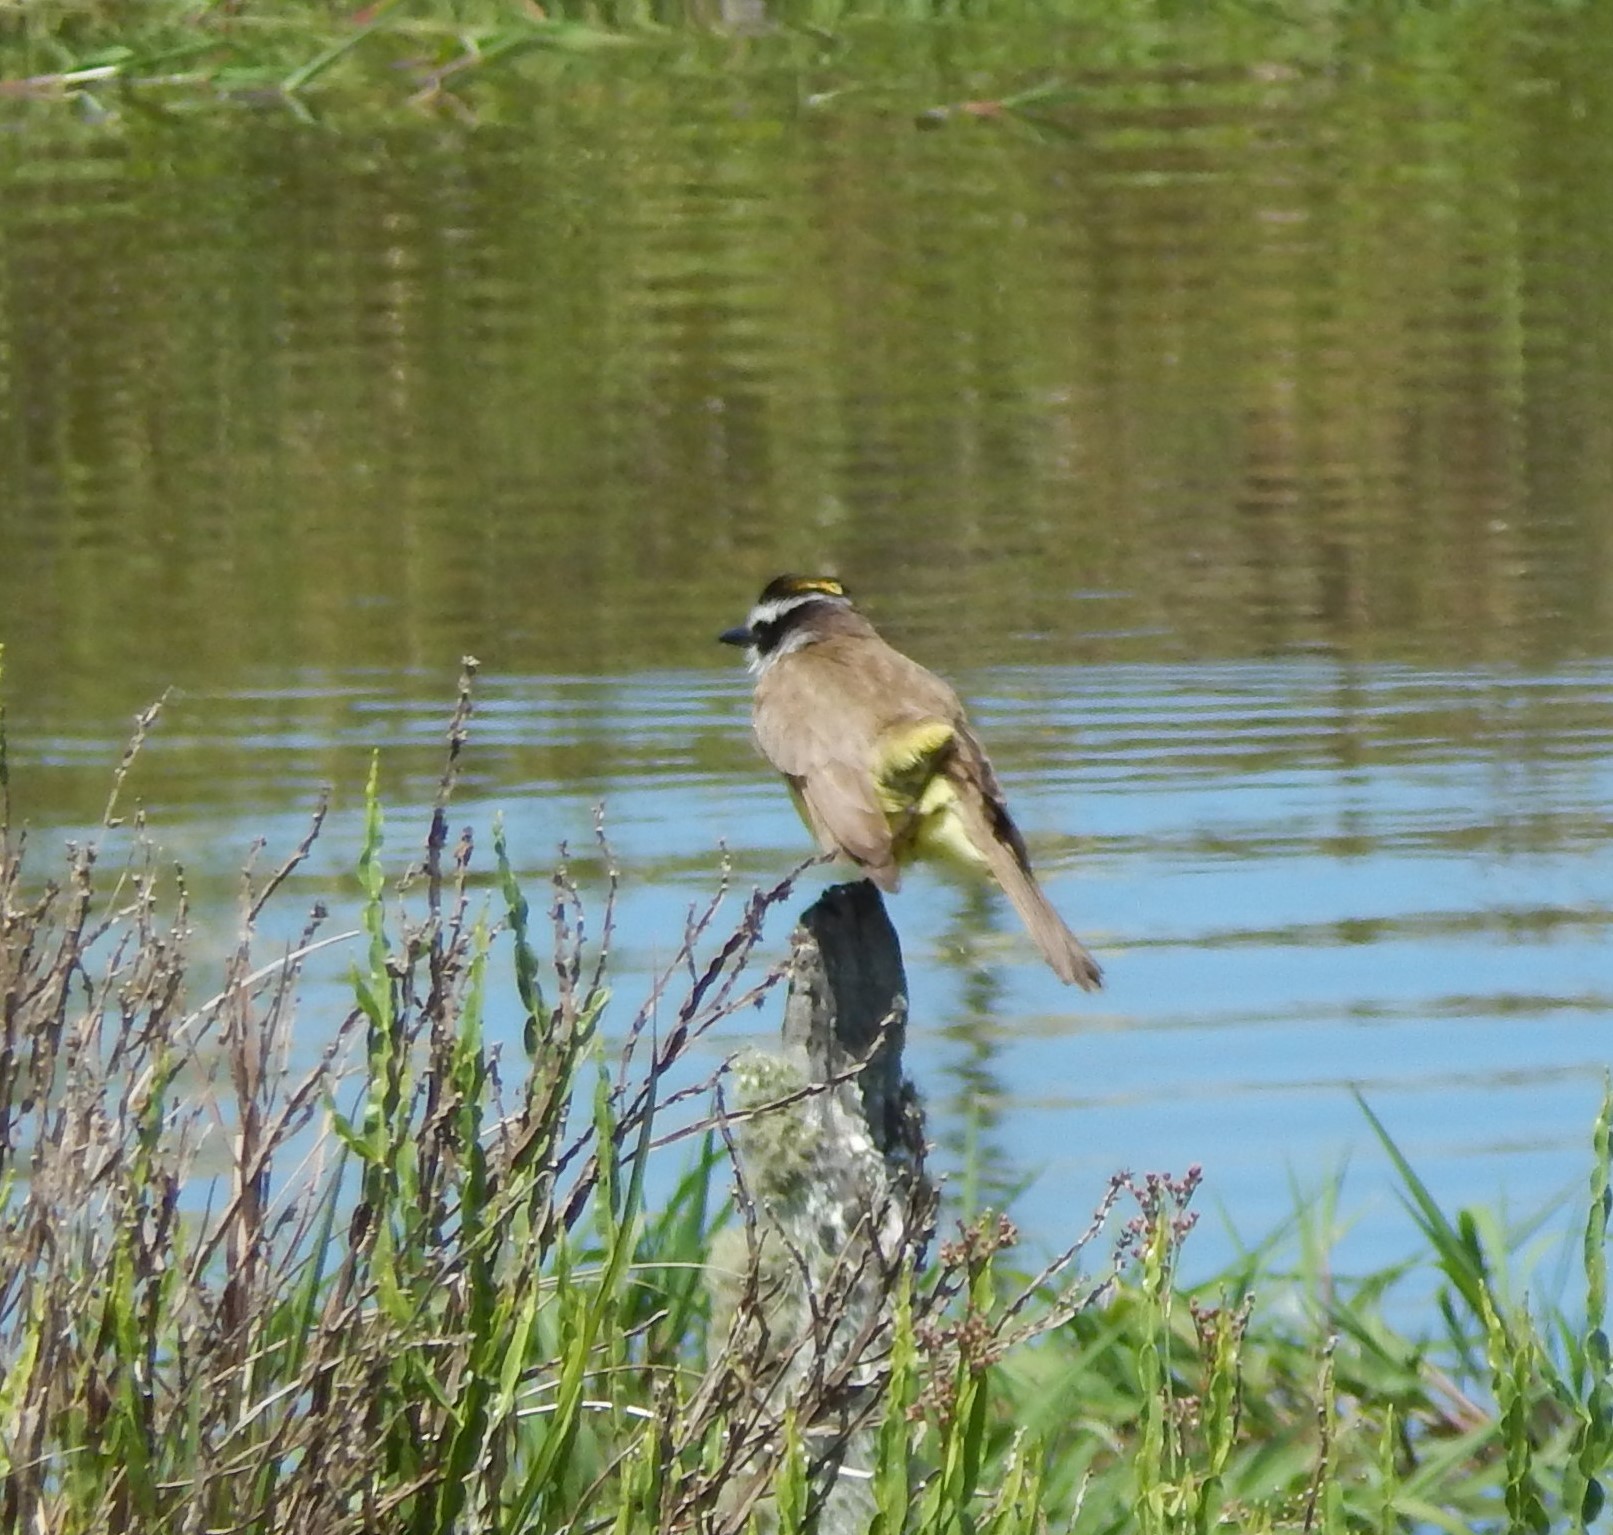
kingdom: Animalia
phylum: Chordata
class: Aves
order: Passeriformes
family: Tyrannidae
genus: Pitangus
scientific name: Pitangus sulphuratus
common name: Great kiskadee
